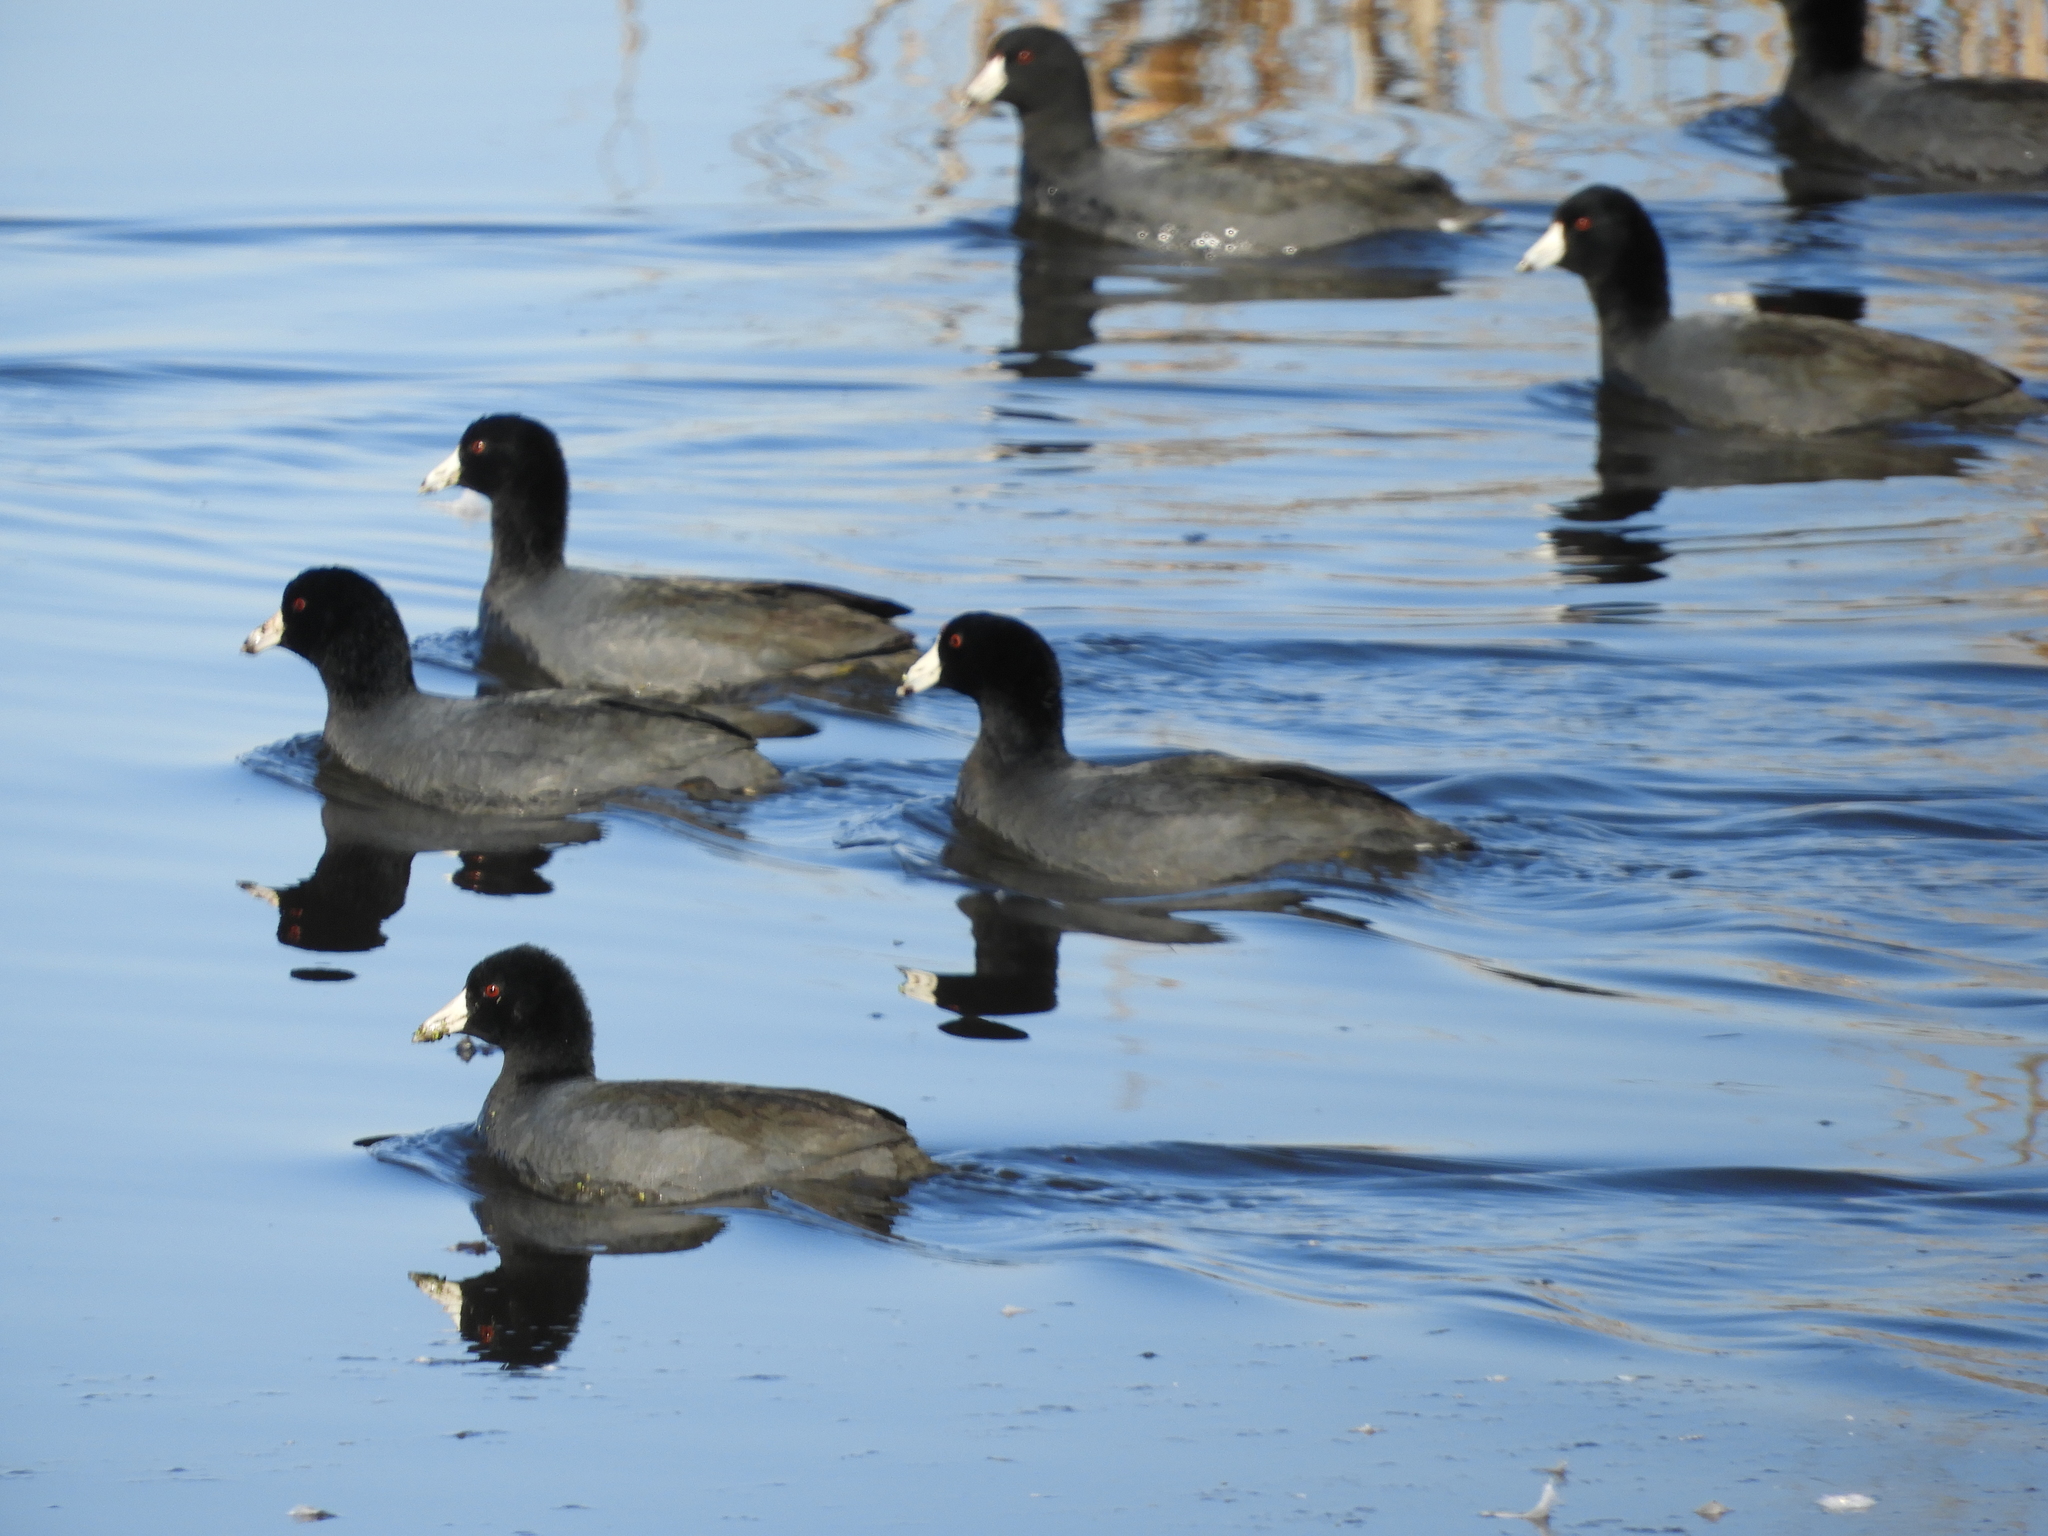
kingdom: Animalia
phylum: Chordata
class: Aves
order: Gruiformes
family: Rallidae
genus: Fulica
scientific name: Fulica americana
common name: American coot
